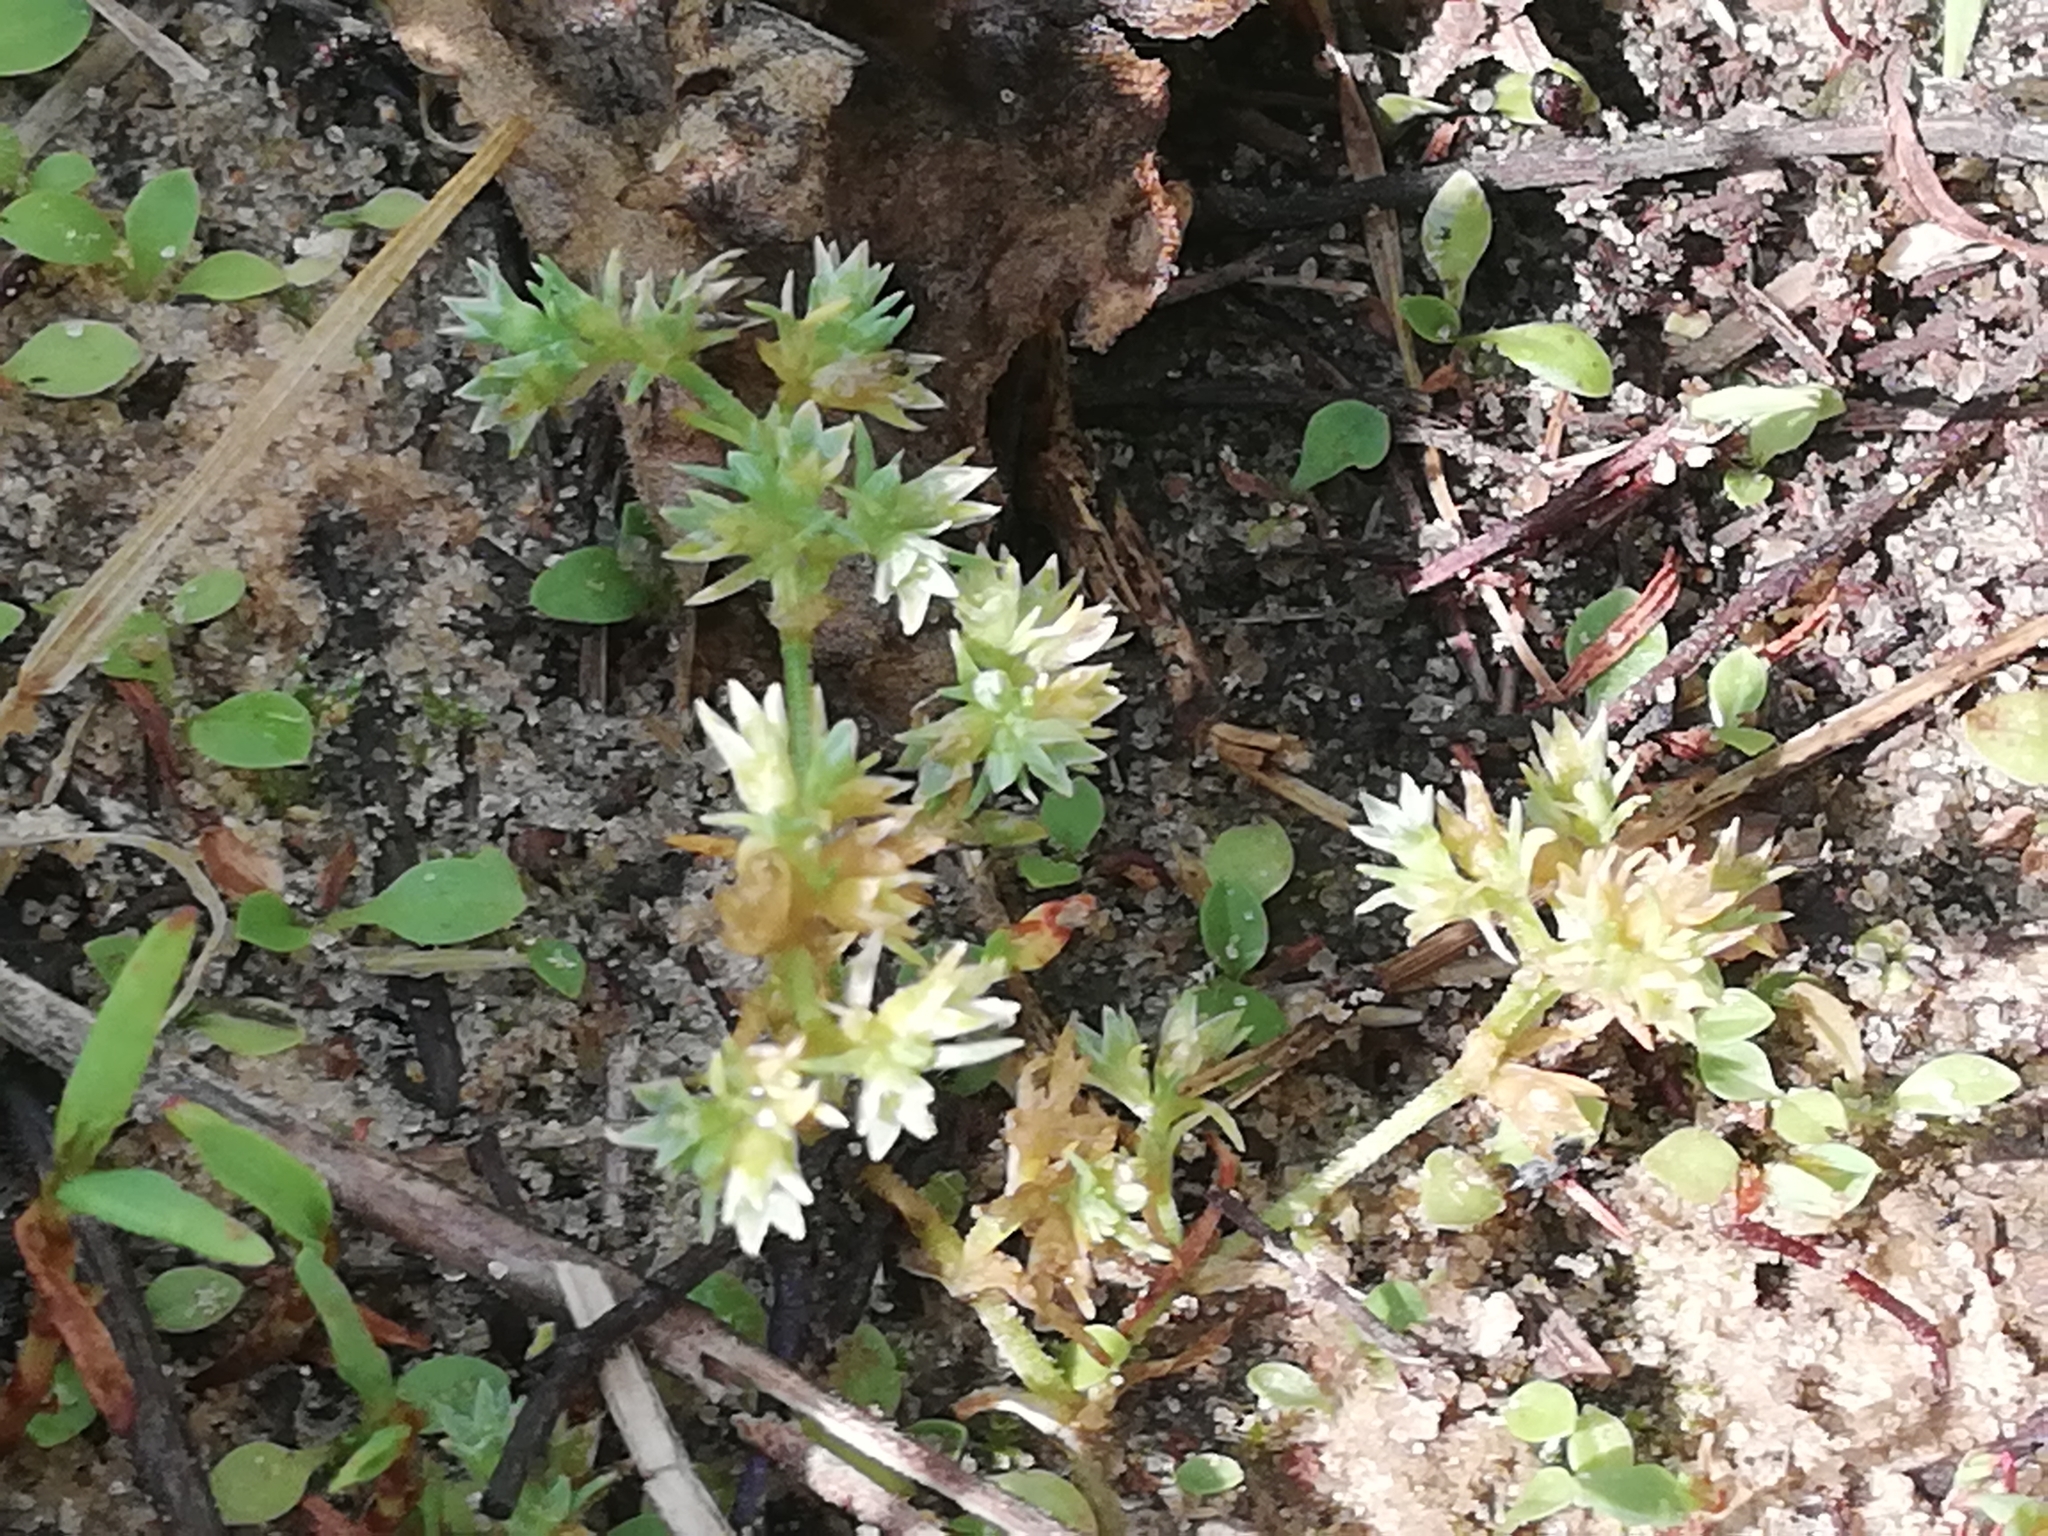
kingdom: Plantae
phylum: Tracheophyta
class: Magnoliopsida
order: Caryophyllales
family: Caryophyllaceae
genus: Scleranthus
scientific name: Scleranthus annuus
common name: Annual knawel
